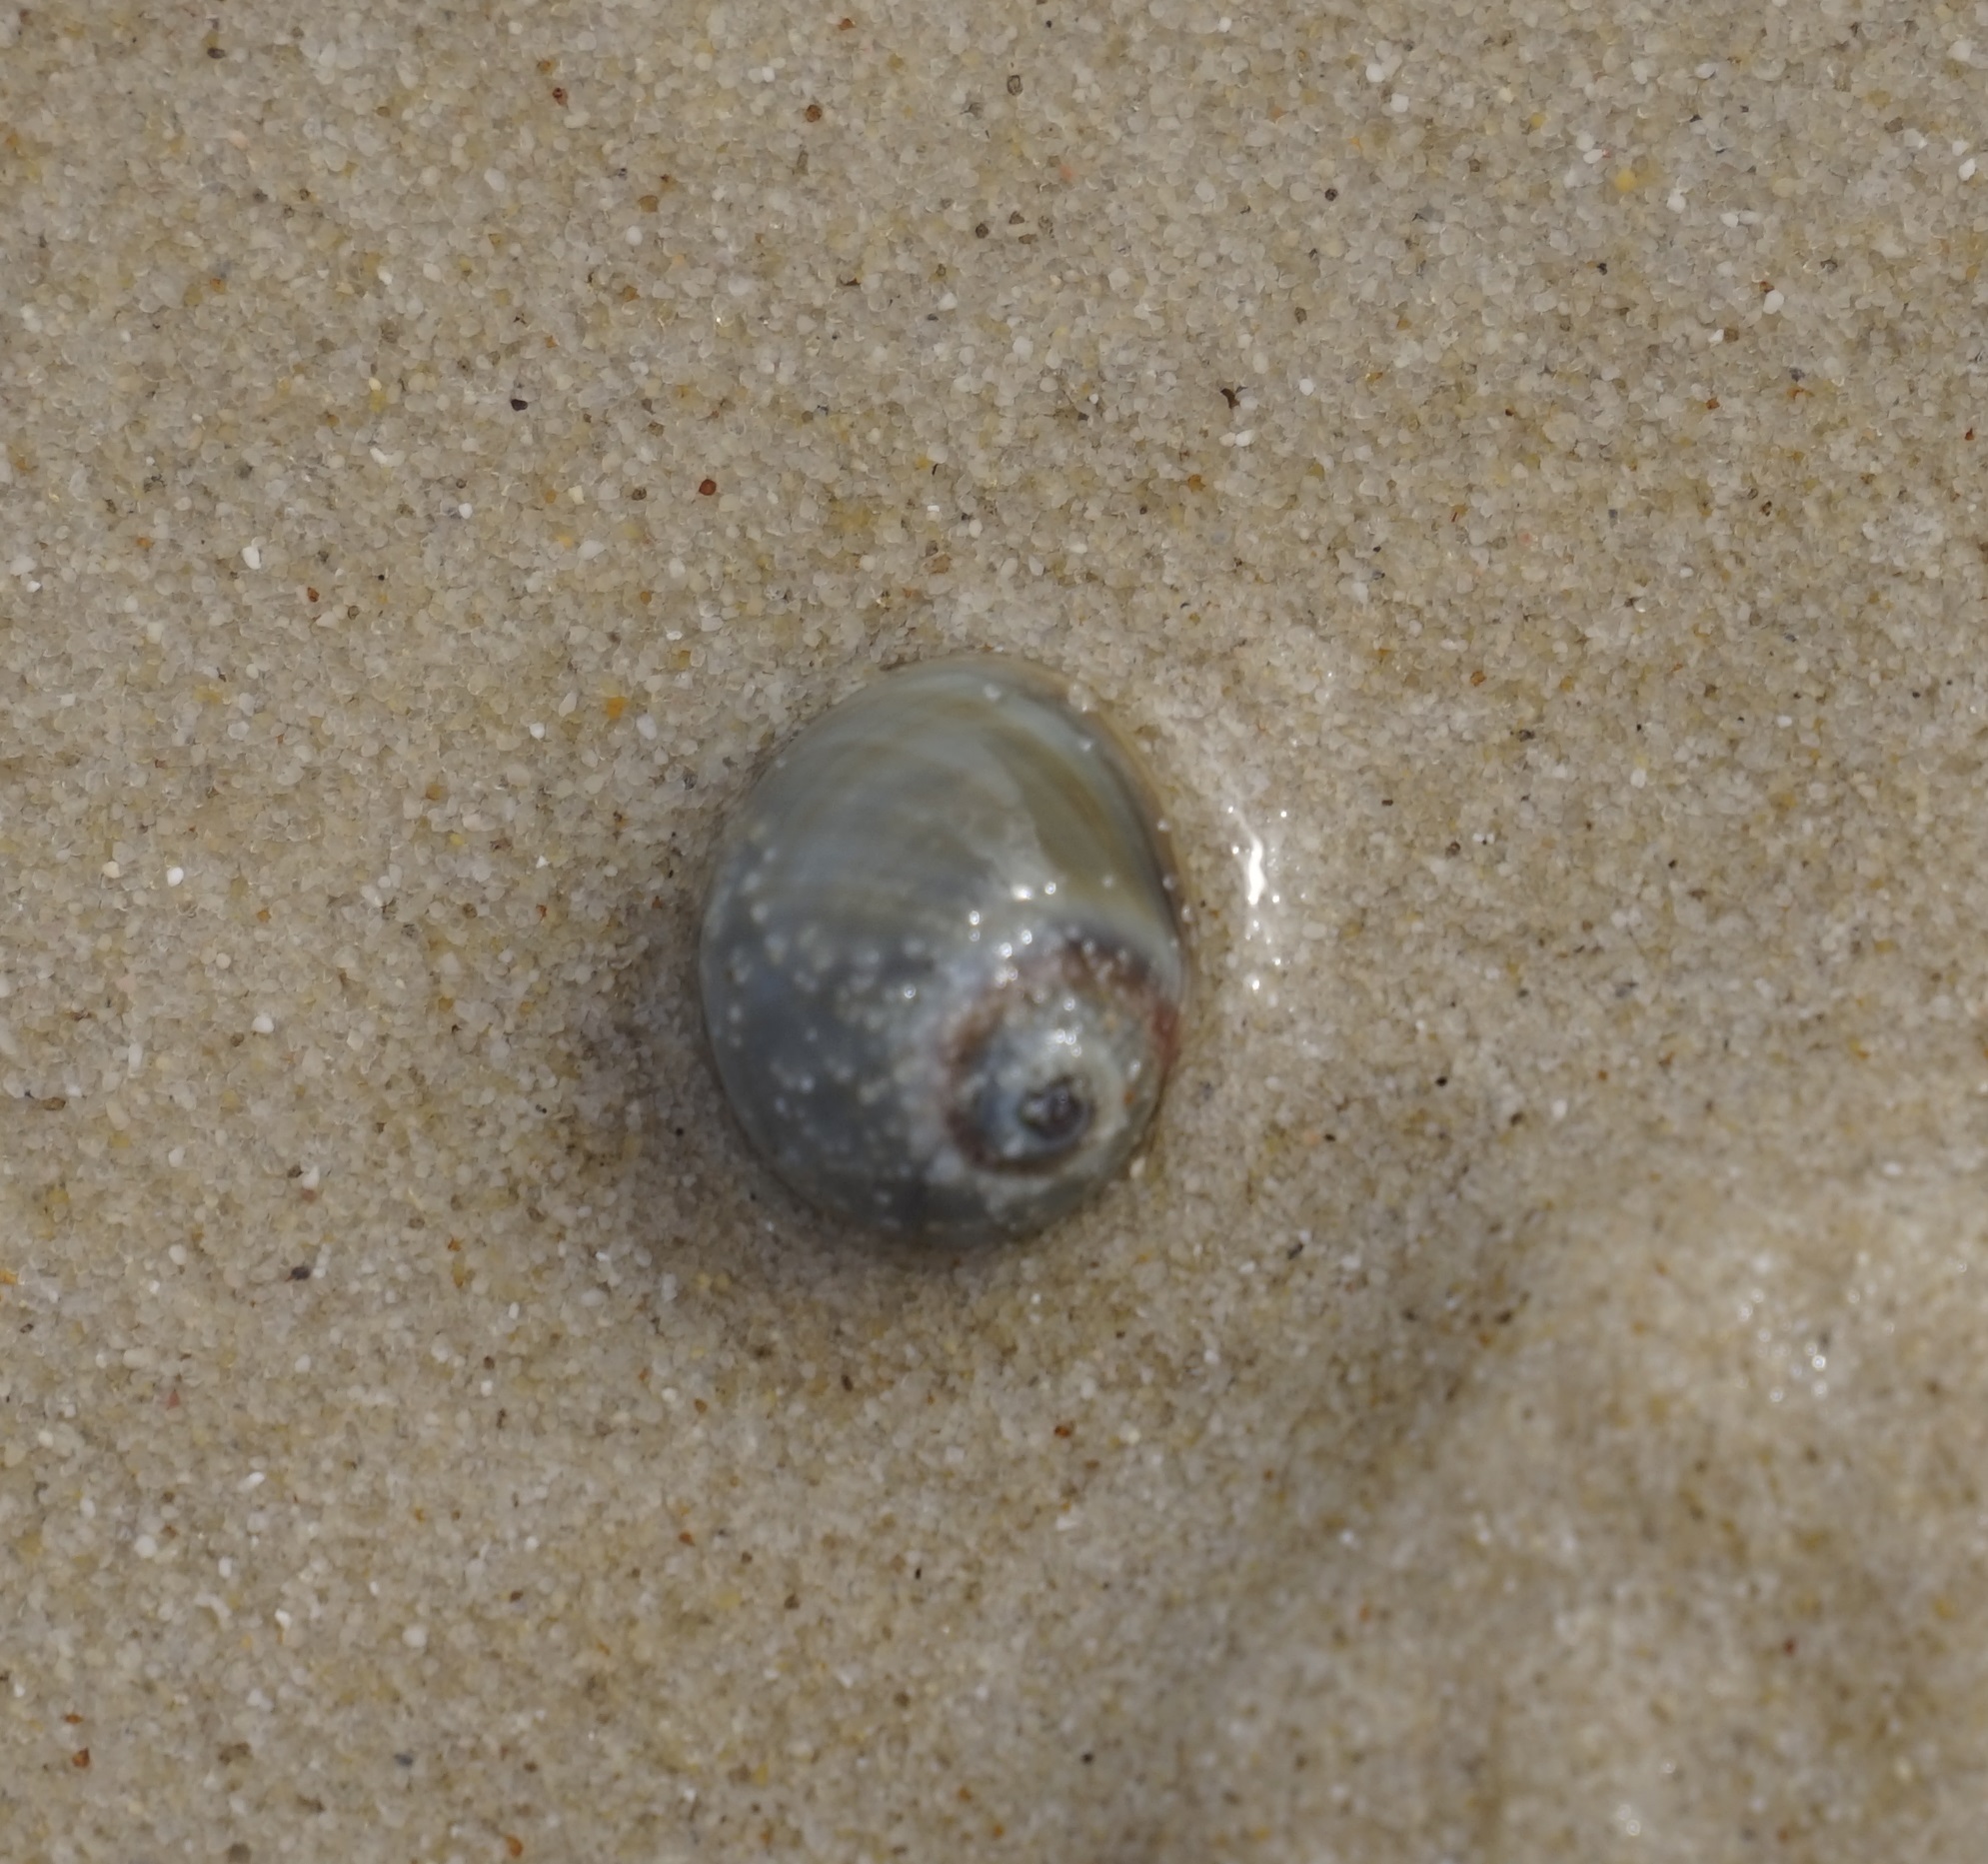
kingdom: Animalia
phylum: Mollusca
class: Gastropoda
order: Littorinimorpha
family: Naticidae
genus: Conuber
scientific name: Conuber
